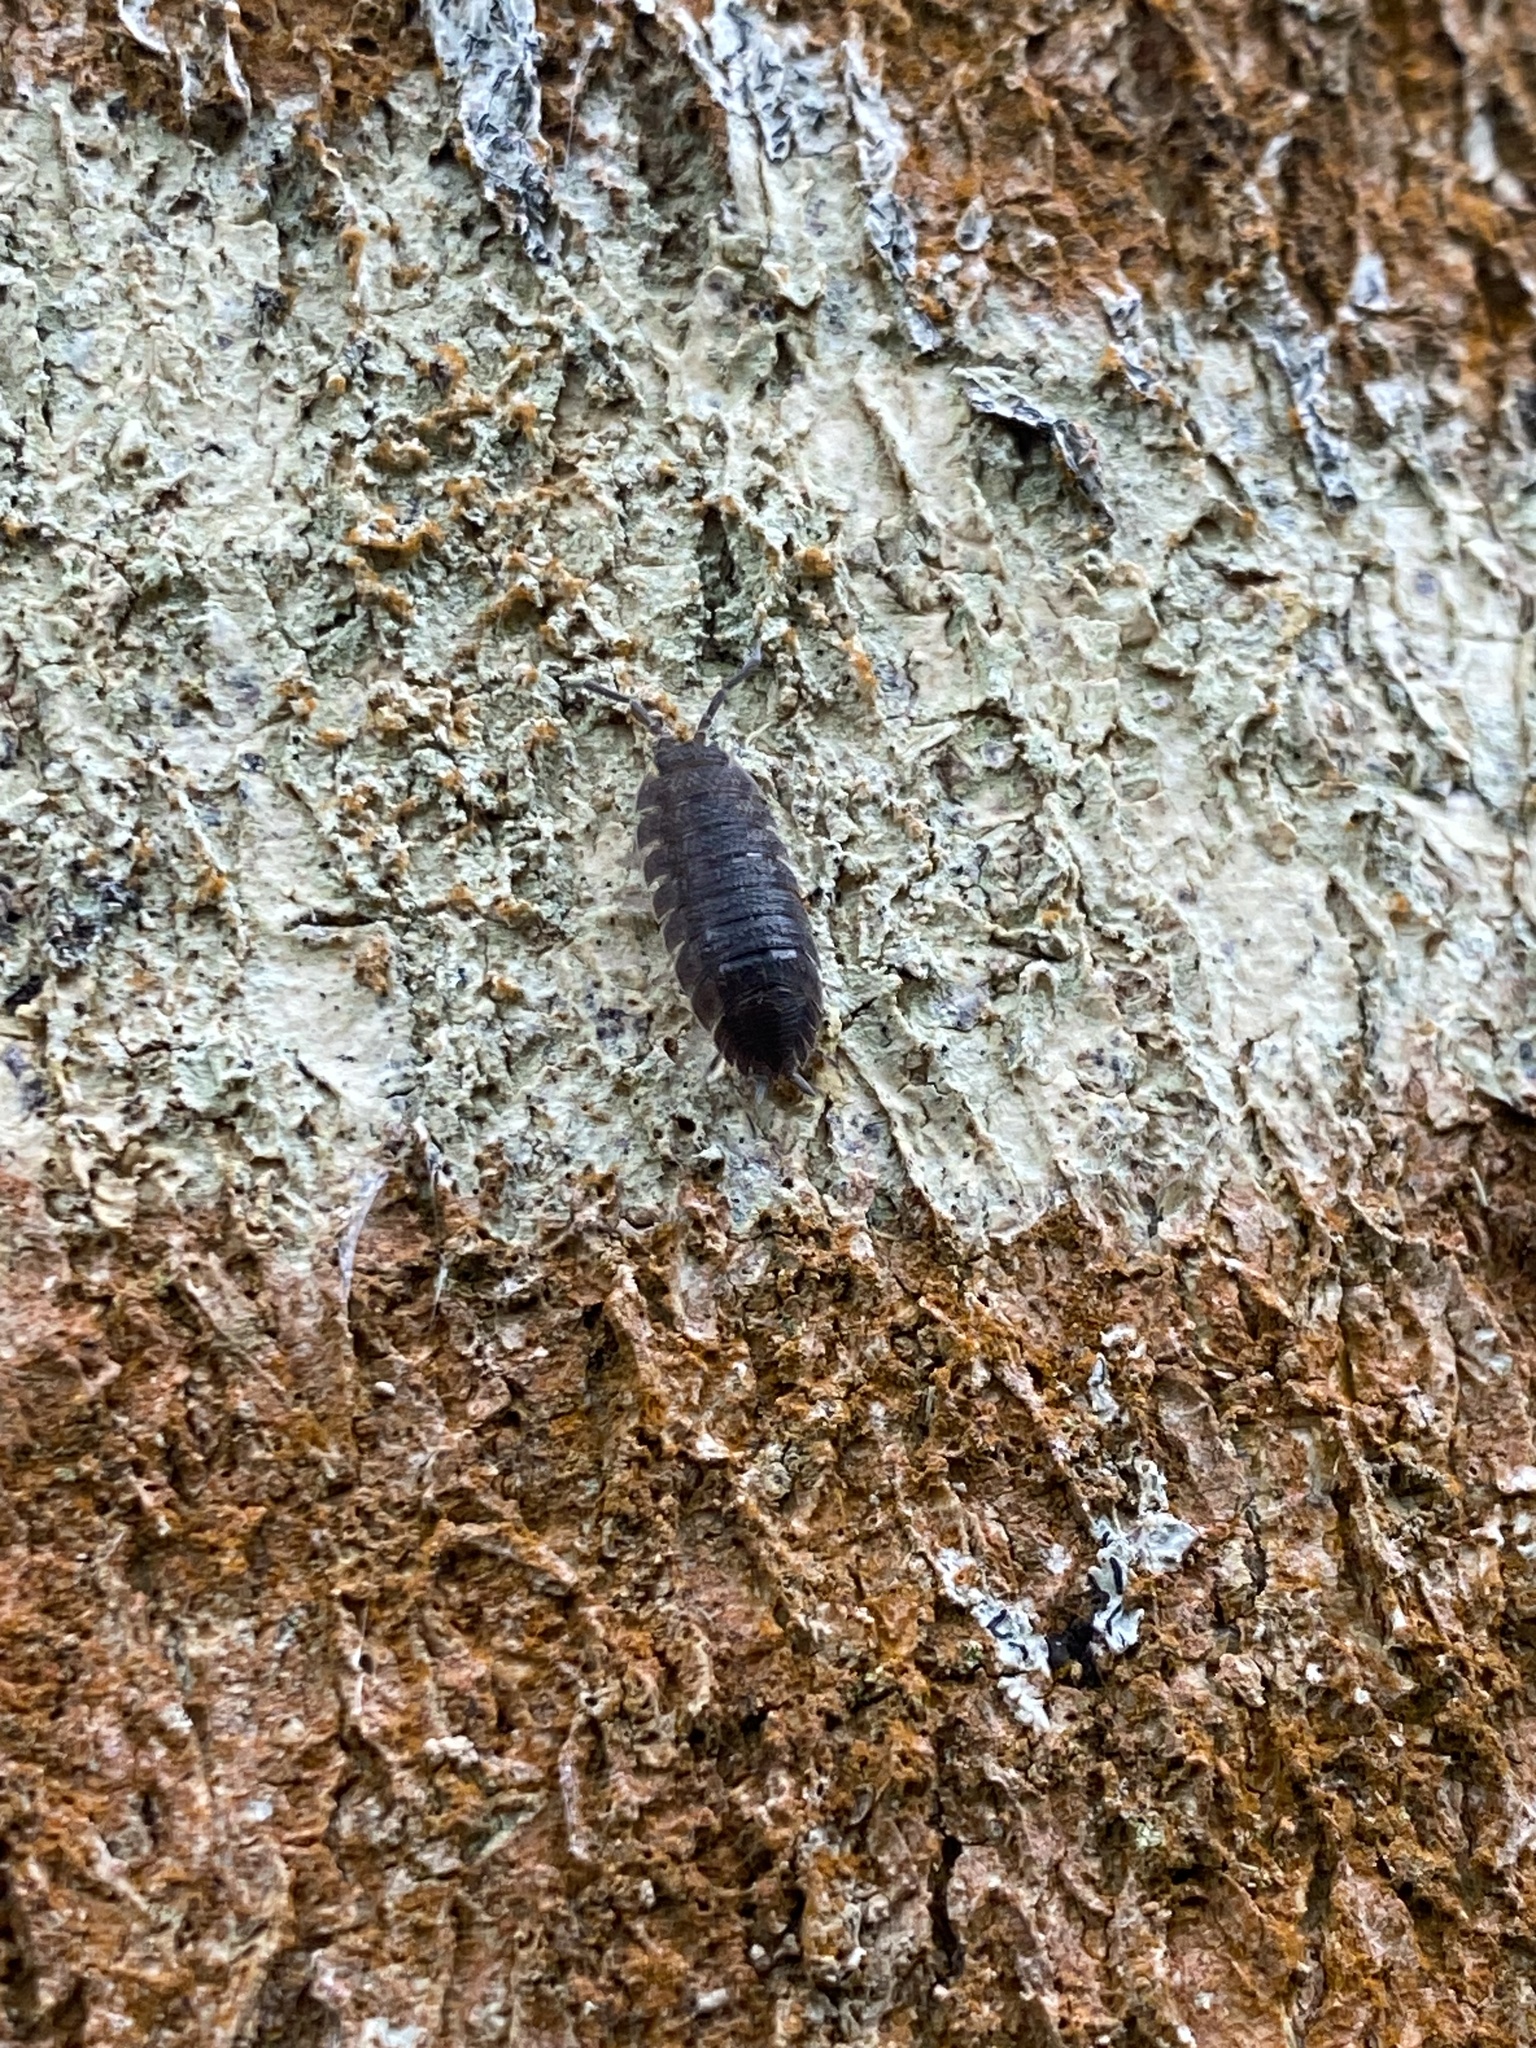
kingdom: Animalia
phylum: Arthropoda
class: Malacostraca
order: Isopoda
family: Porcellionidae
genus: Porcellio
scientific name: Porcellio scaber
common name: Common rough woodlouse
